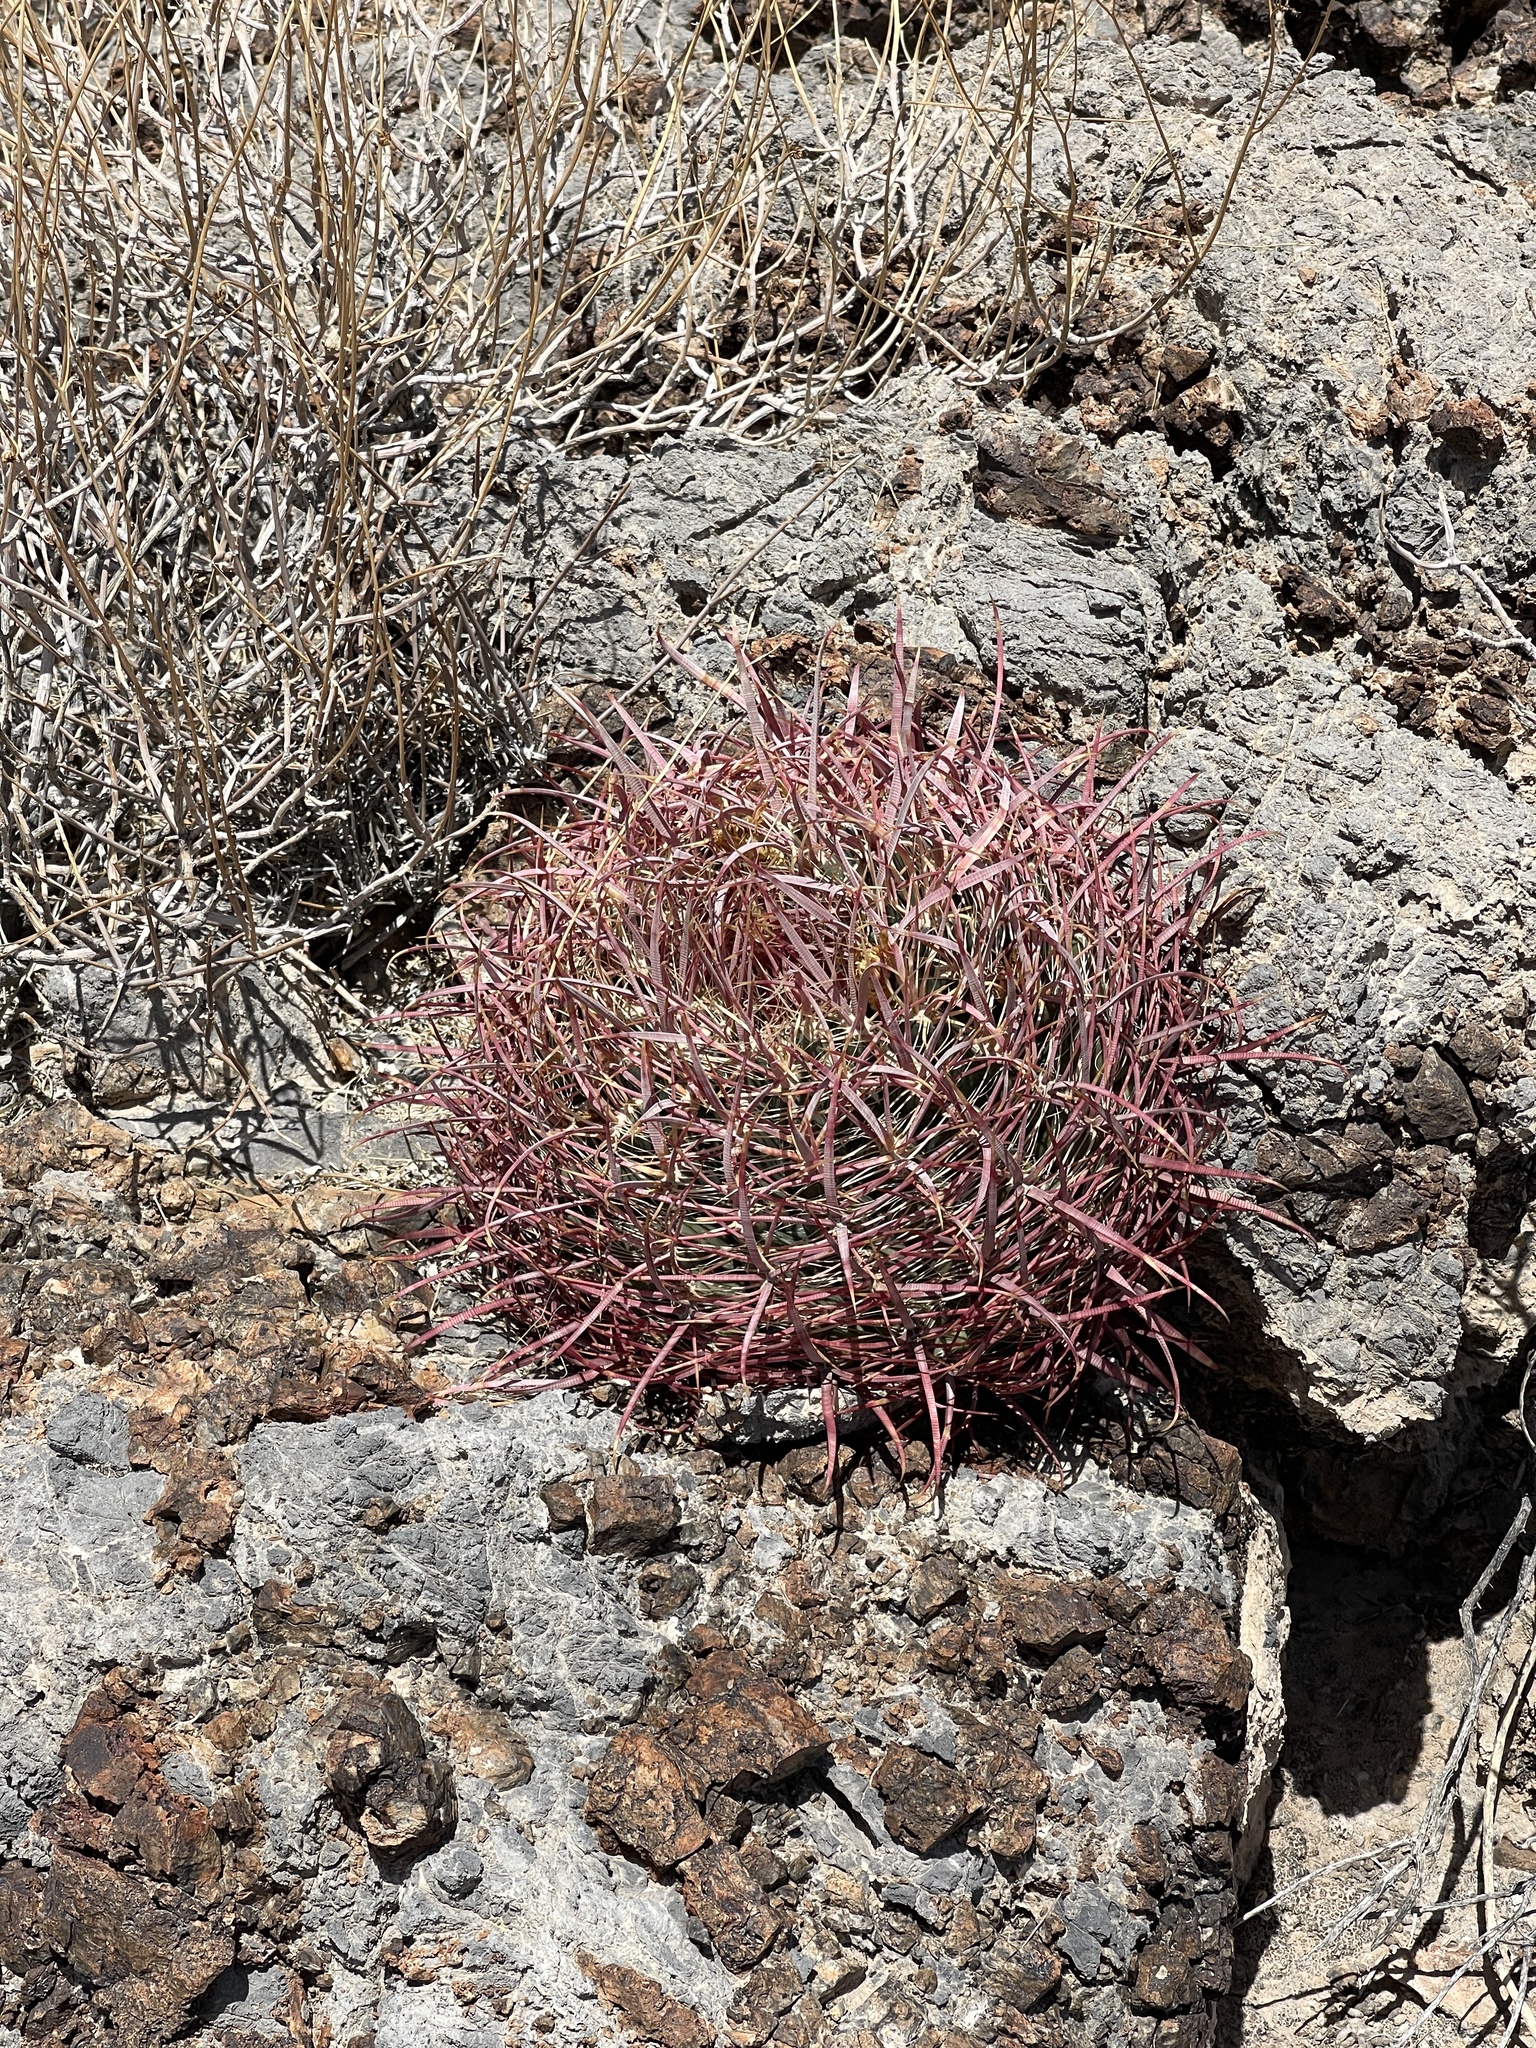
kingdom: Plantae
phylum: Tracheophyta
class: Magnoliopsida
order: Caryophyllales
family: Cactaceae
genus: Ferocactus
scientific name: Ferocactus cylindraceus
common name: California barrel cactus
